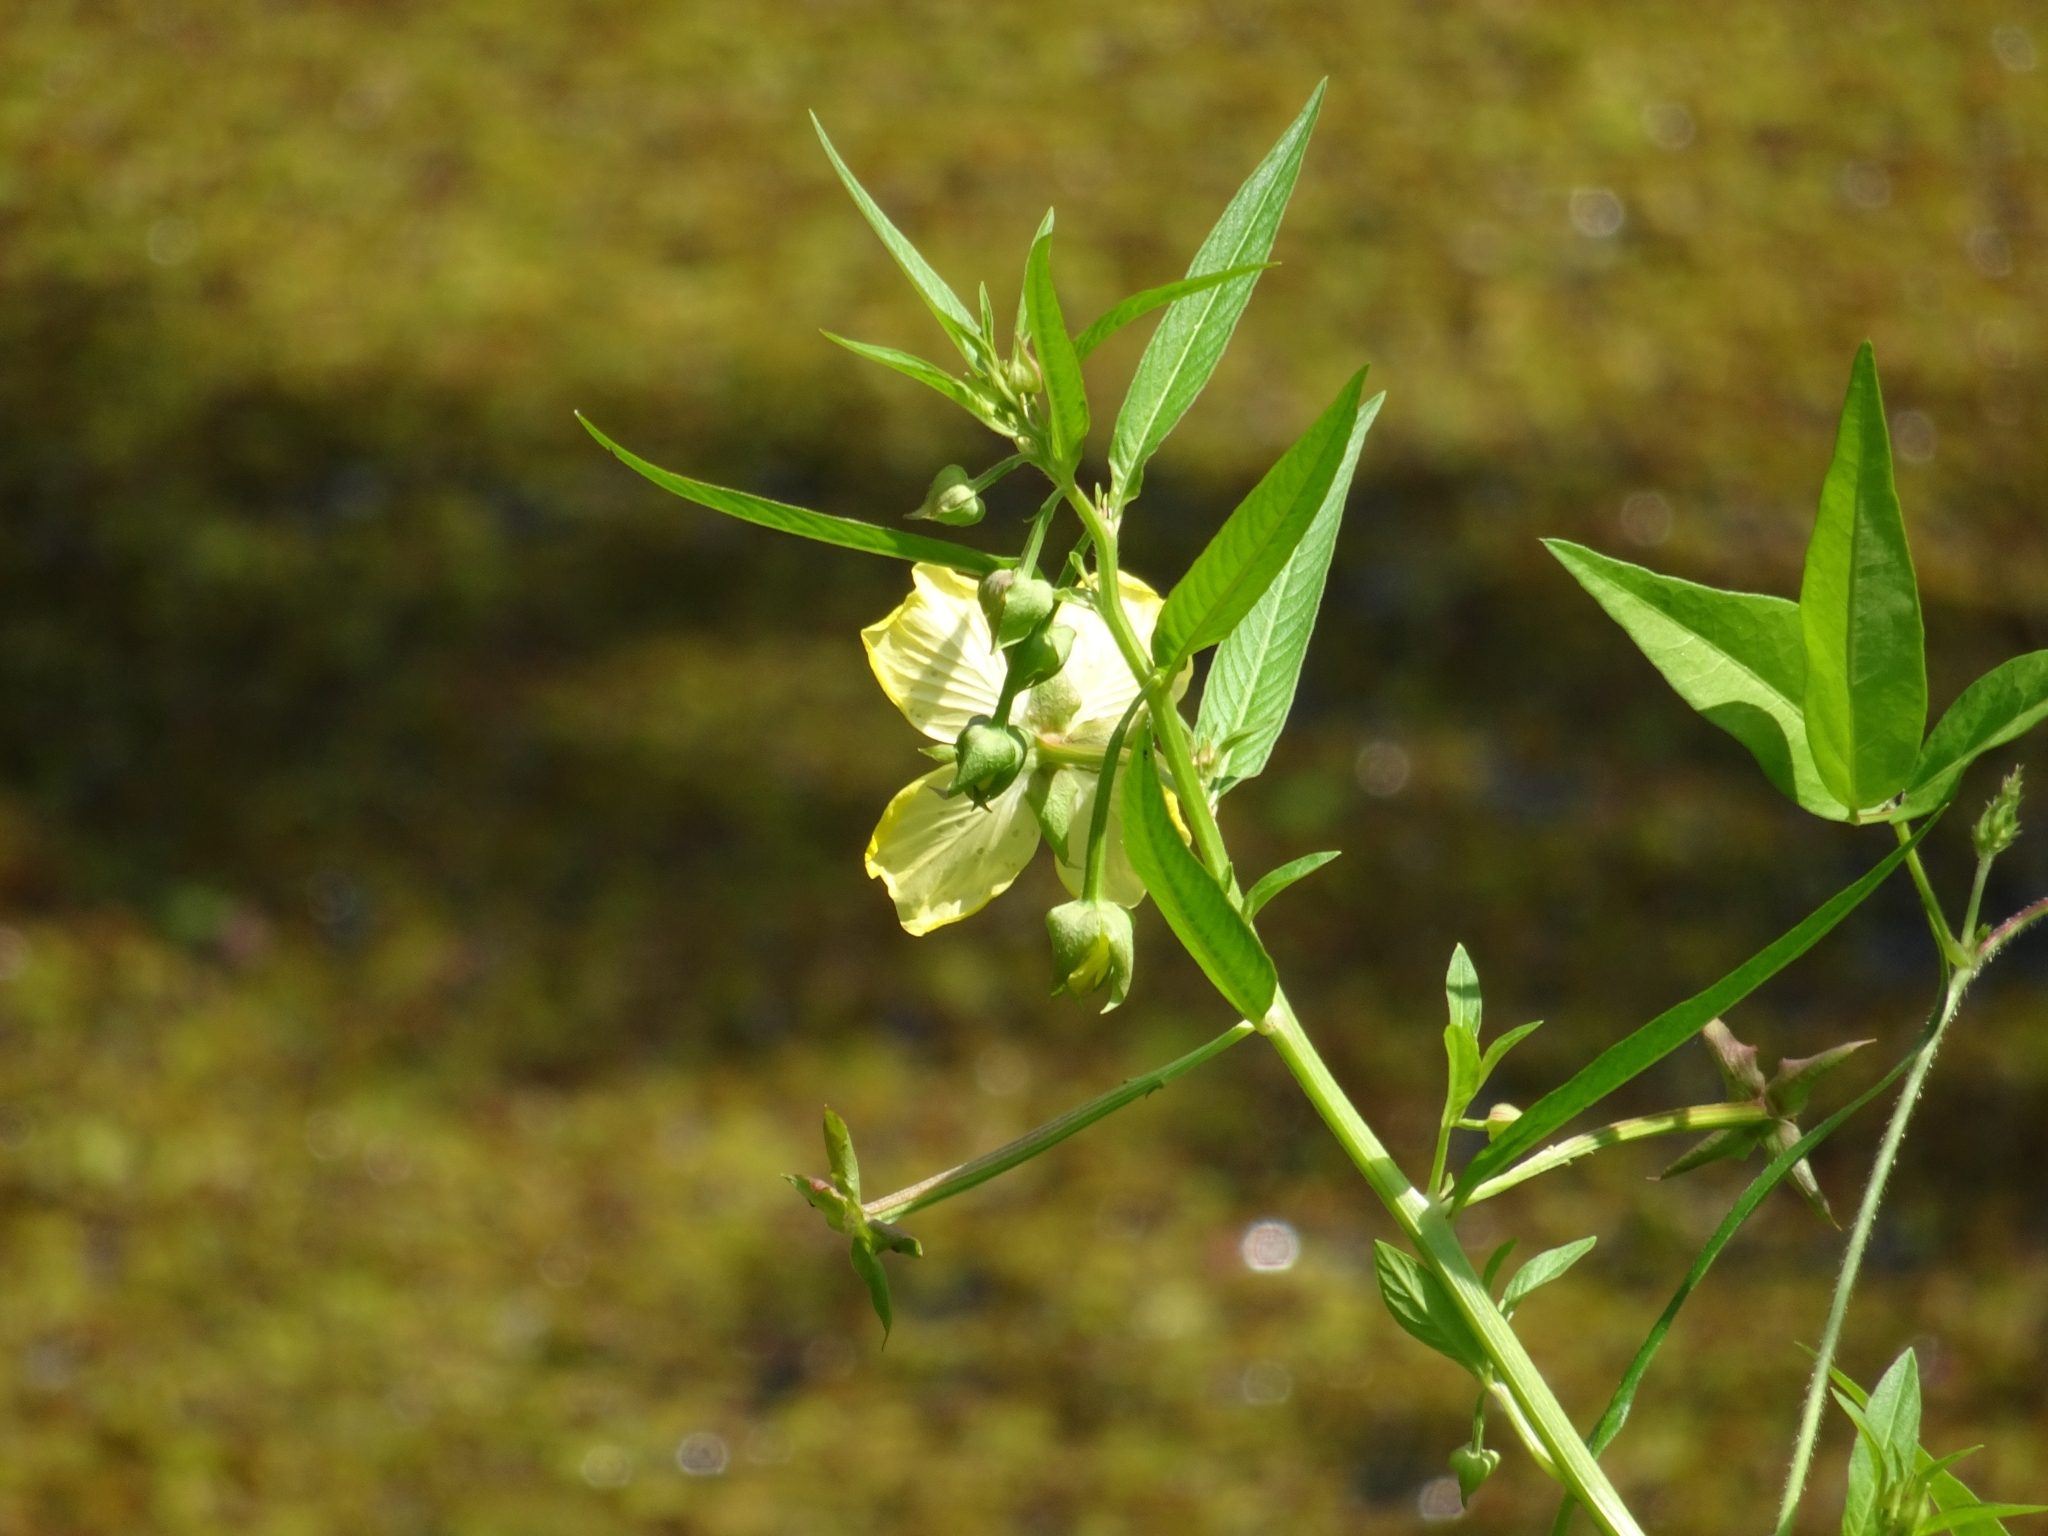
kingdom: Plantae
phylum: Tracheophyta
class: Magnoliopsida
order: Myrtales
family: Onagraceae
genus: Ludwigia
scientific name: Ludwigia octovalvis
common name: Water-primrose
